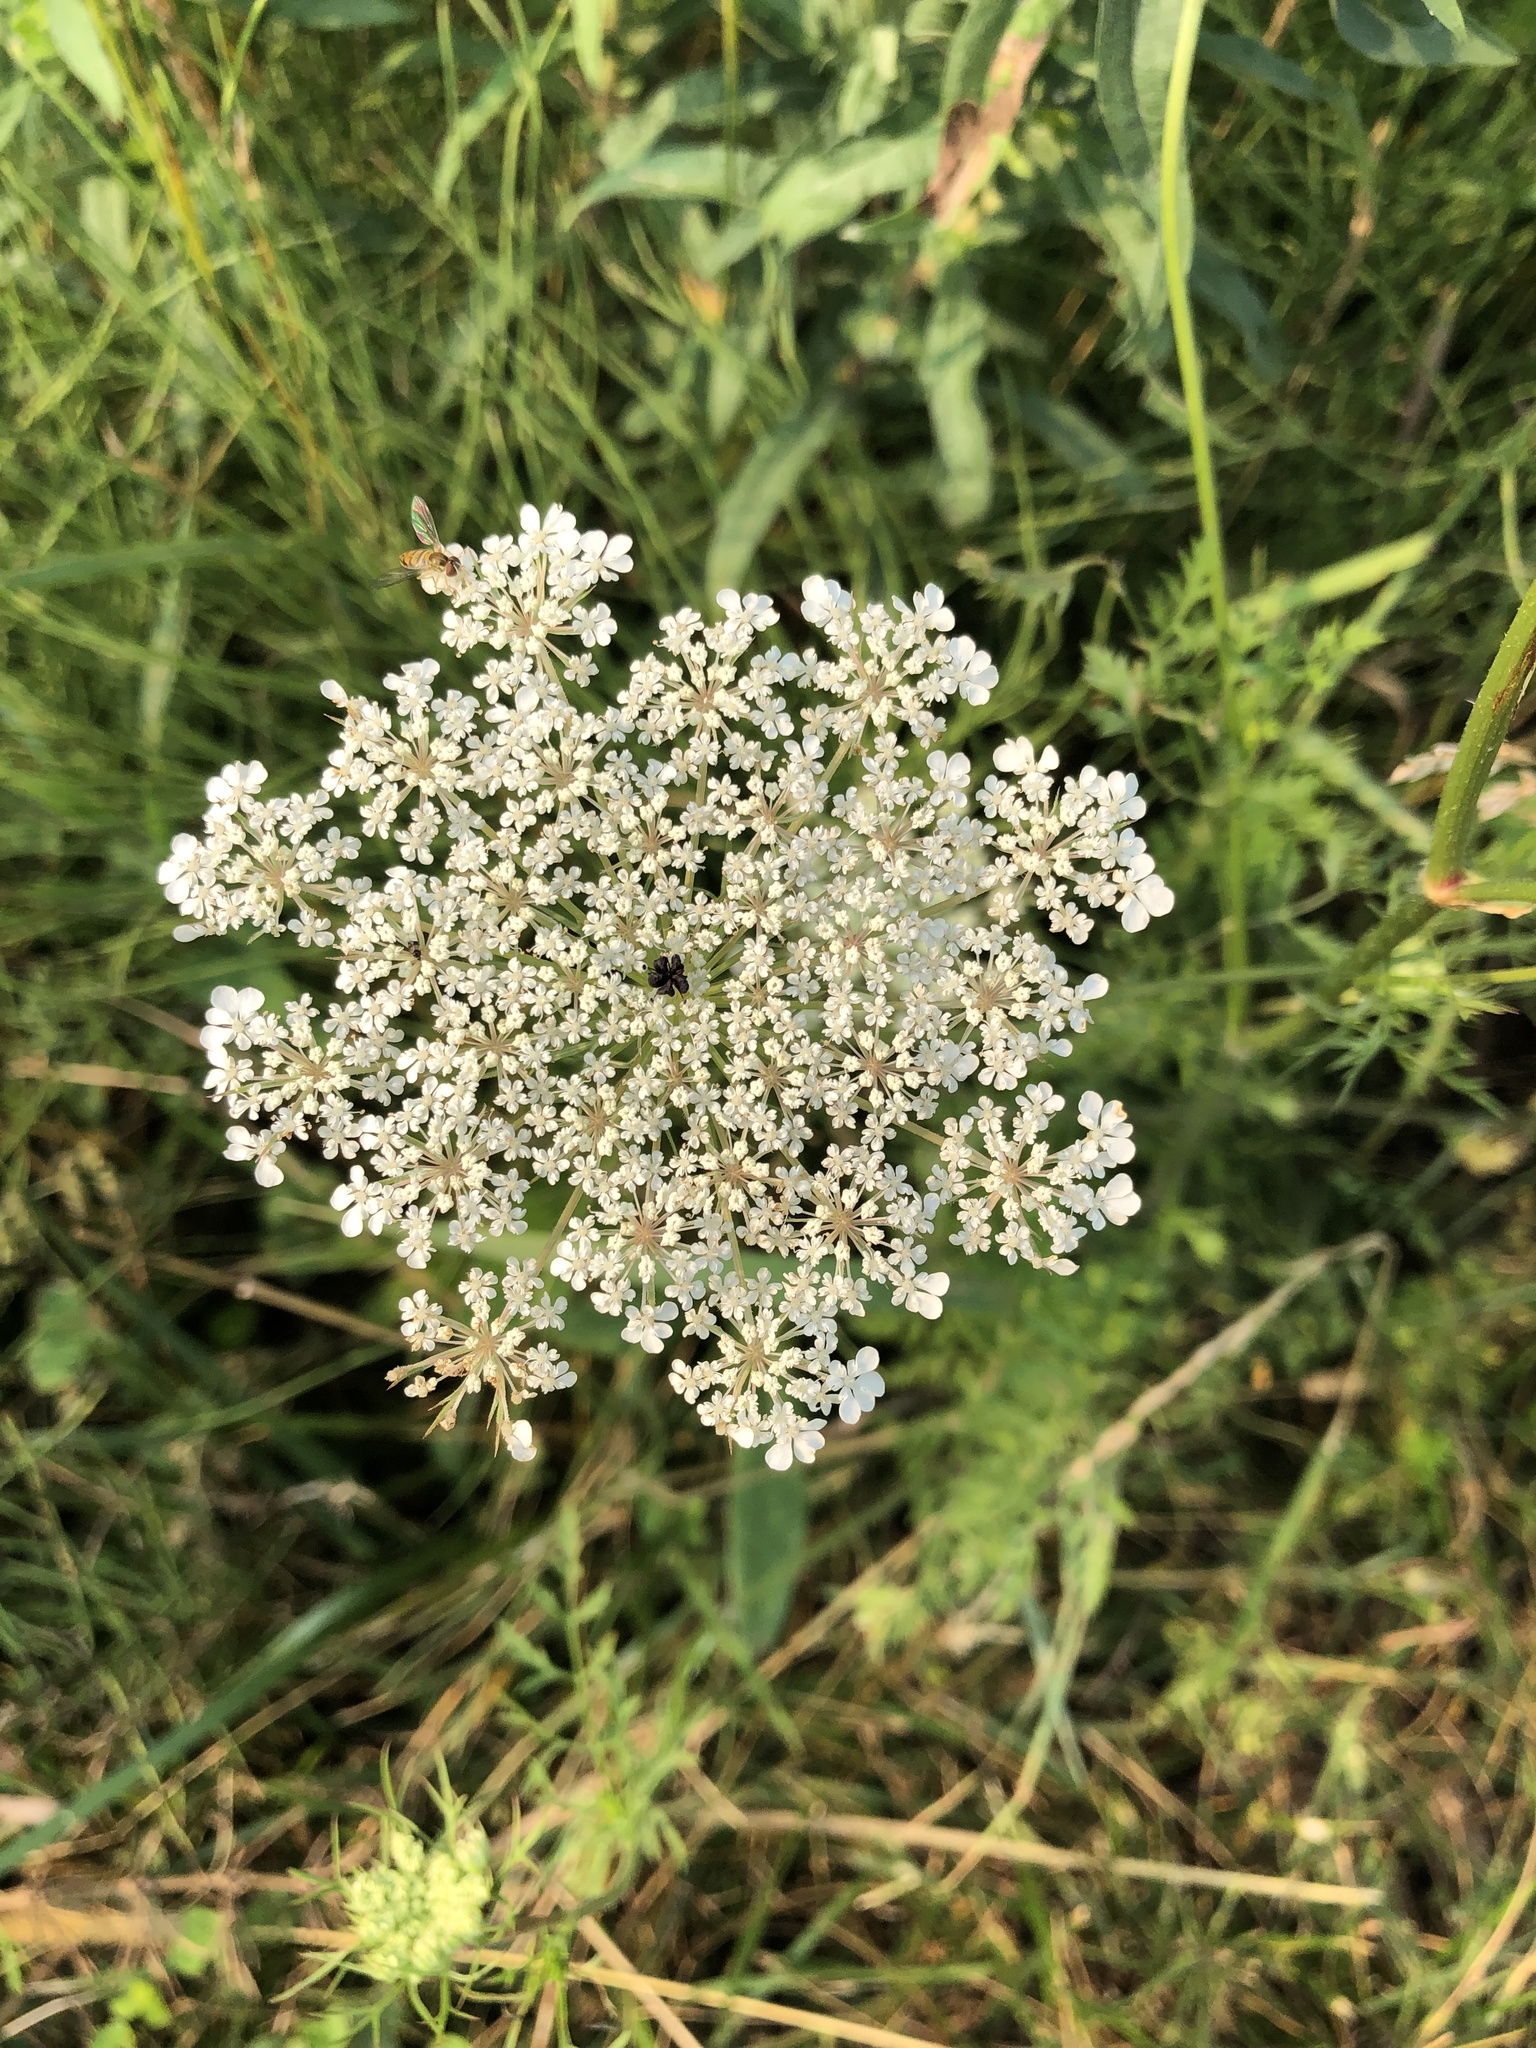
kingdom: Plantae
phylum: Tracheophyta
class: Magnoliopsida
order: Apiales
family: Apiaceae
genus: Daucus
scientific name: Daucus carota
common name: Wild carrot
